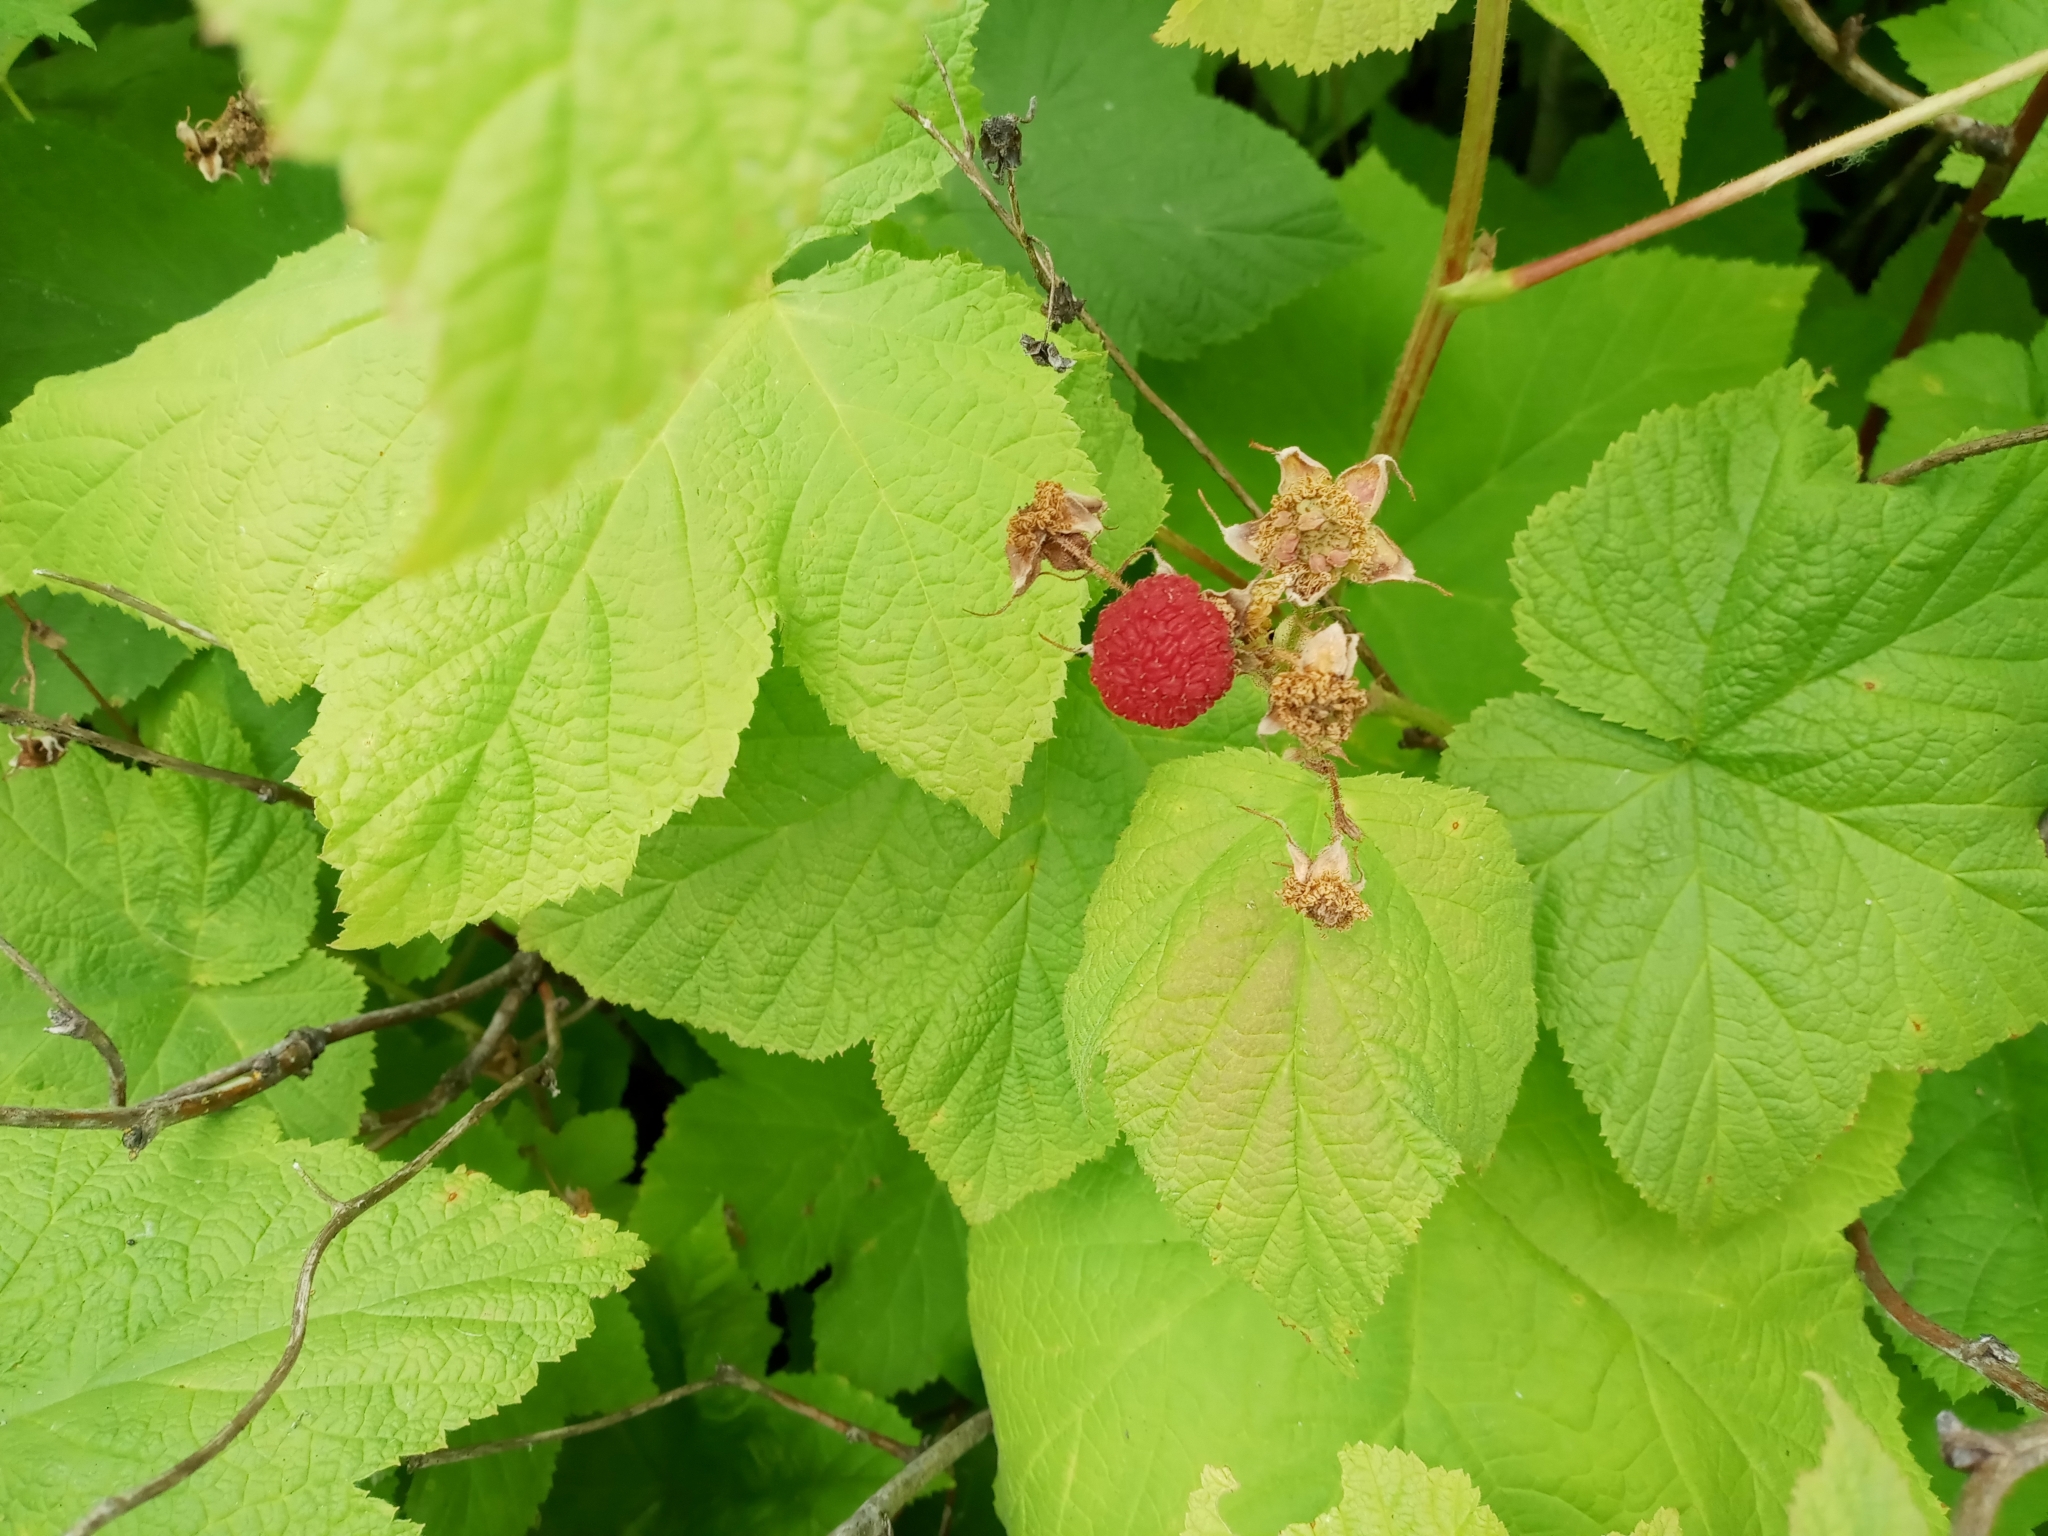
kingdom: Plantae
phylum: Tracheophyta
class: Magnoliopsida
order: Rosales
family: Rosaceae
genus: Rubus
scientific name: Rubus parviflorus
